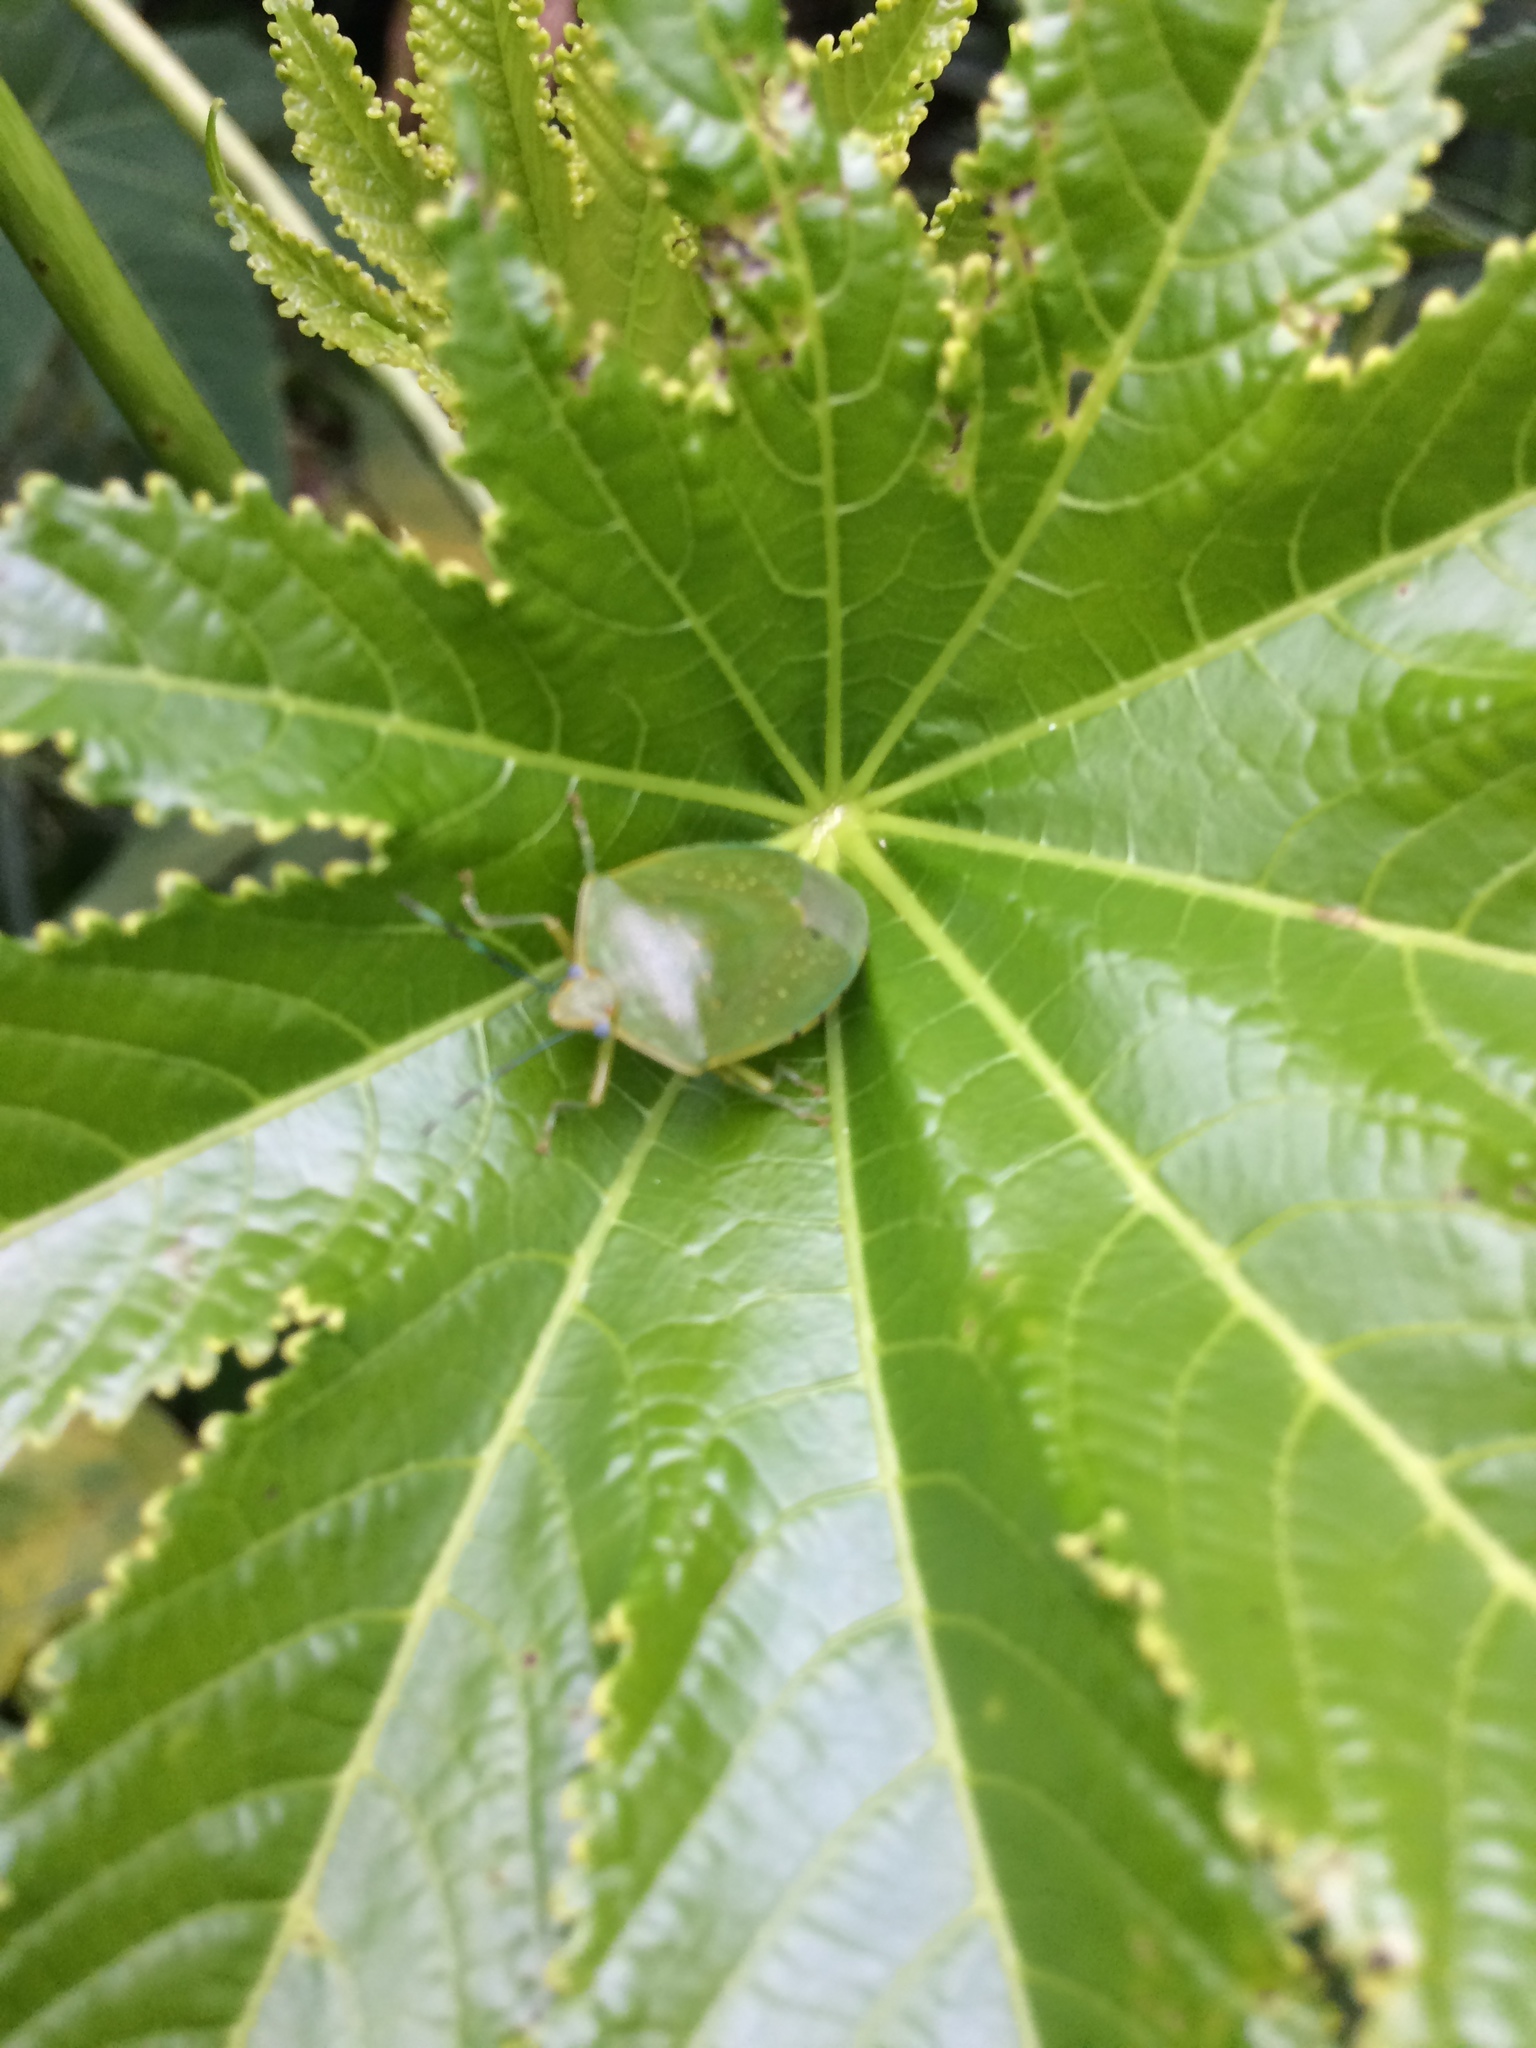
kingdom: Animalia
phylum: Arthropoda
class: Insecta
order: Hemiptera
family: Pentatomidae
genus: Chinavia
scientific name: Chinavia
